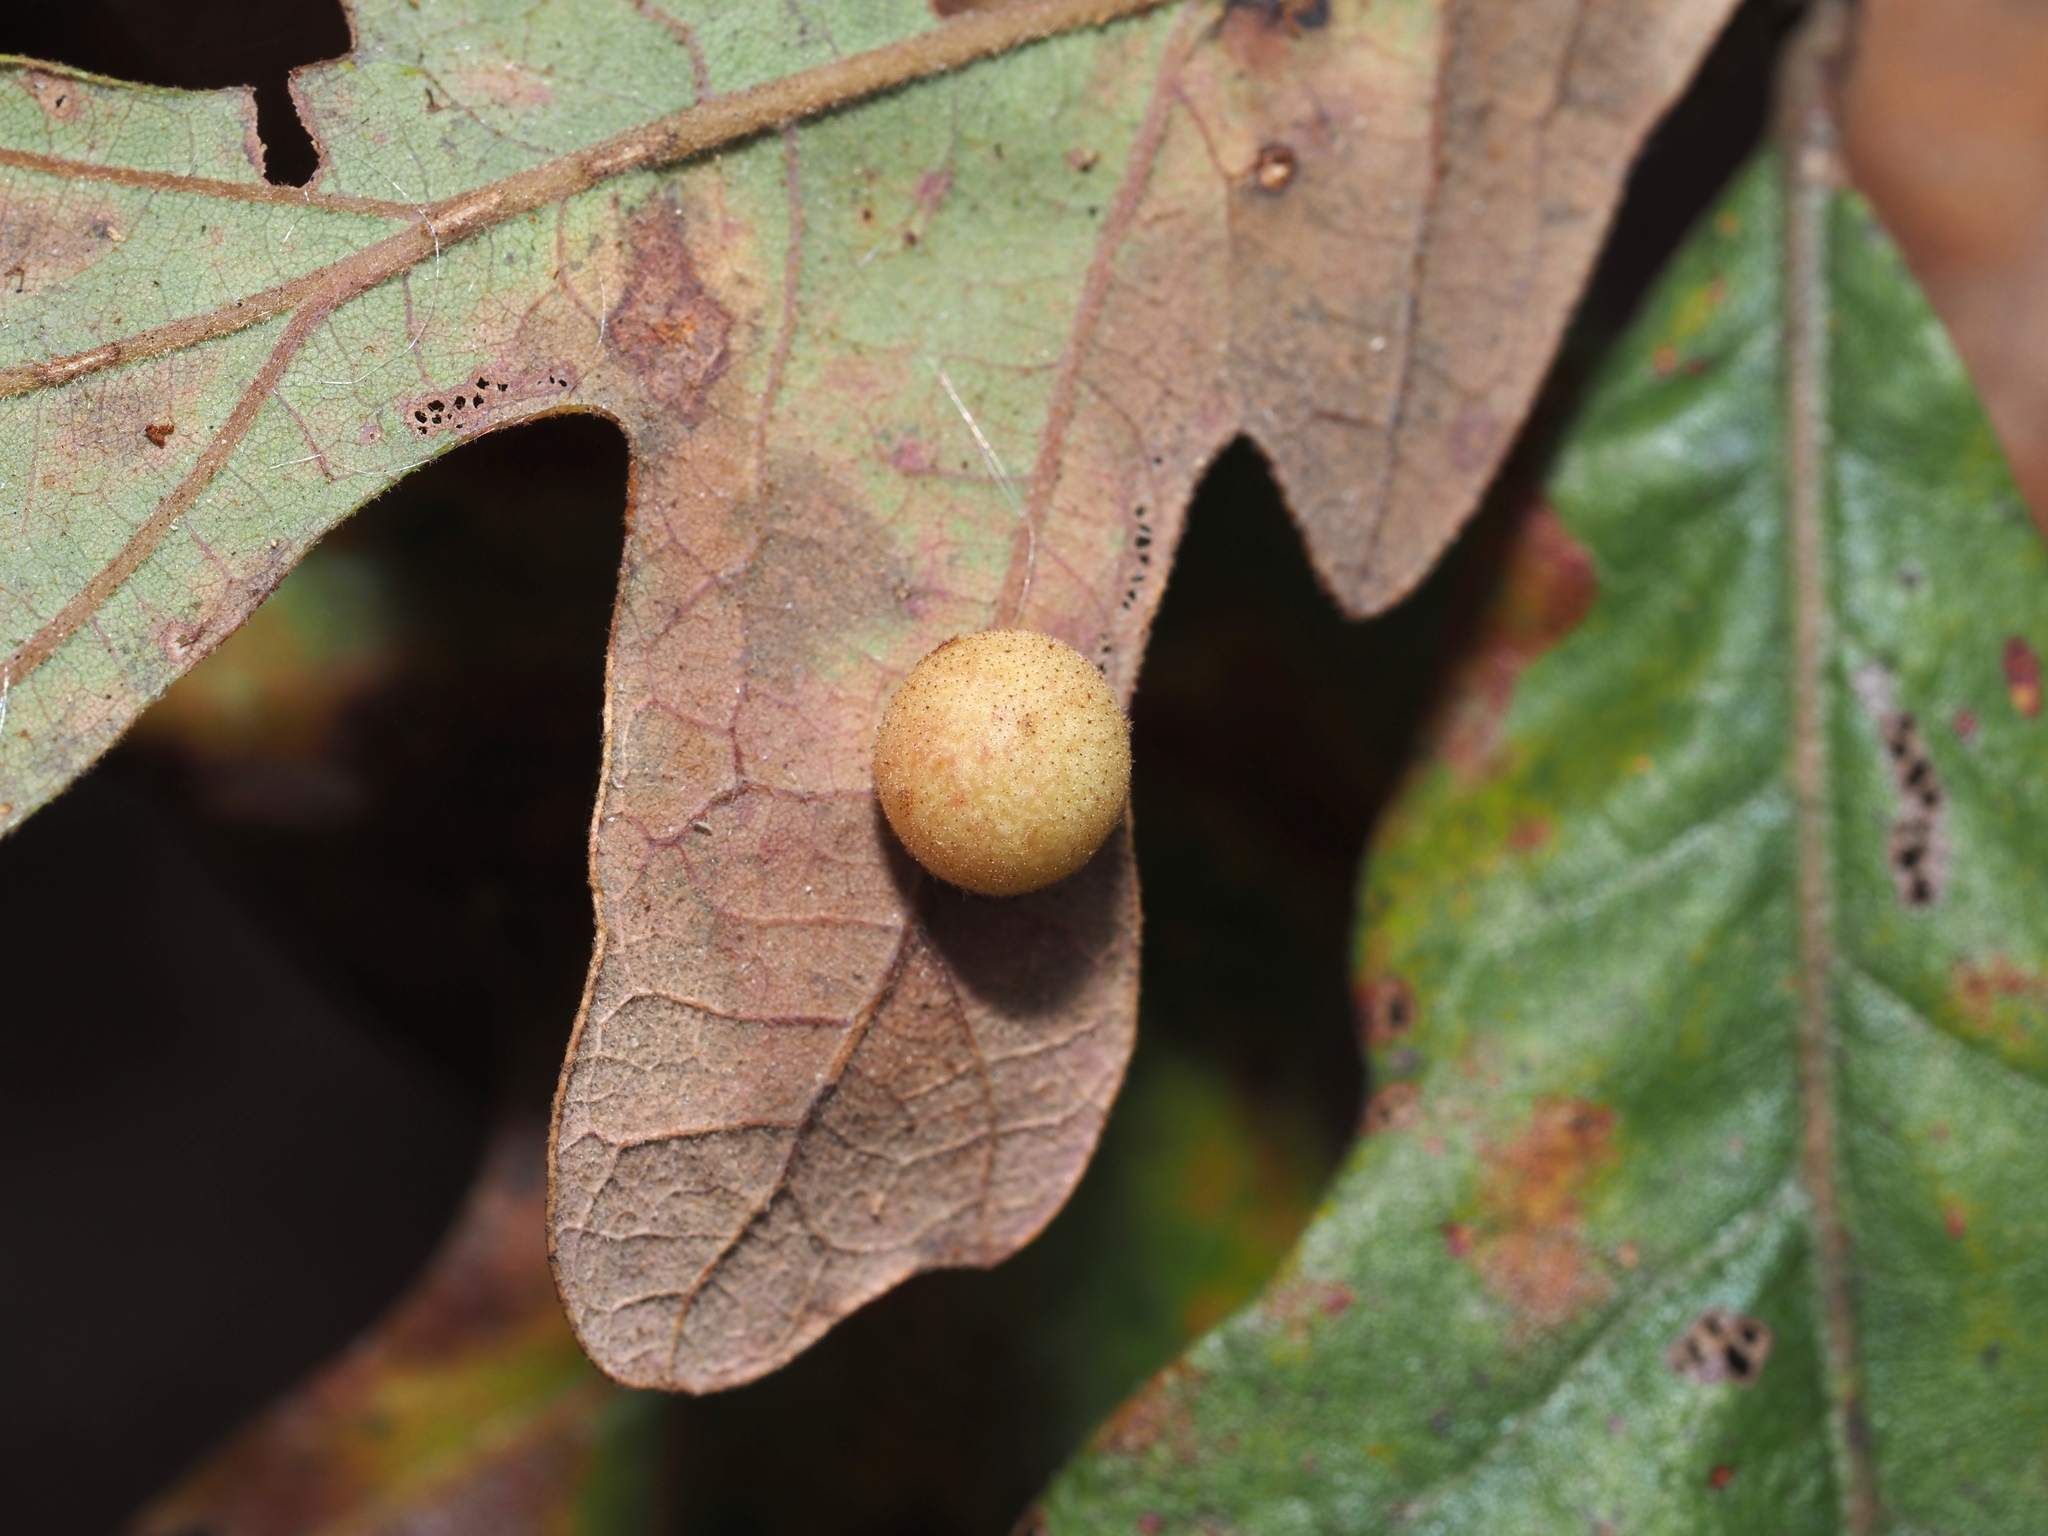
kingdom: Animalia
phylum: Arthropoda
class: Insecta
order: Hymenoptera
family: Cynipidae
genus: Atrusca
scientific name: Atrusca
